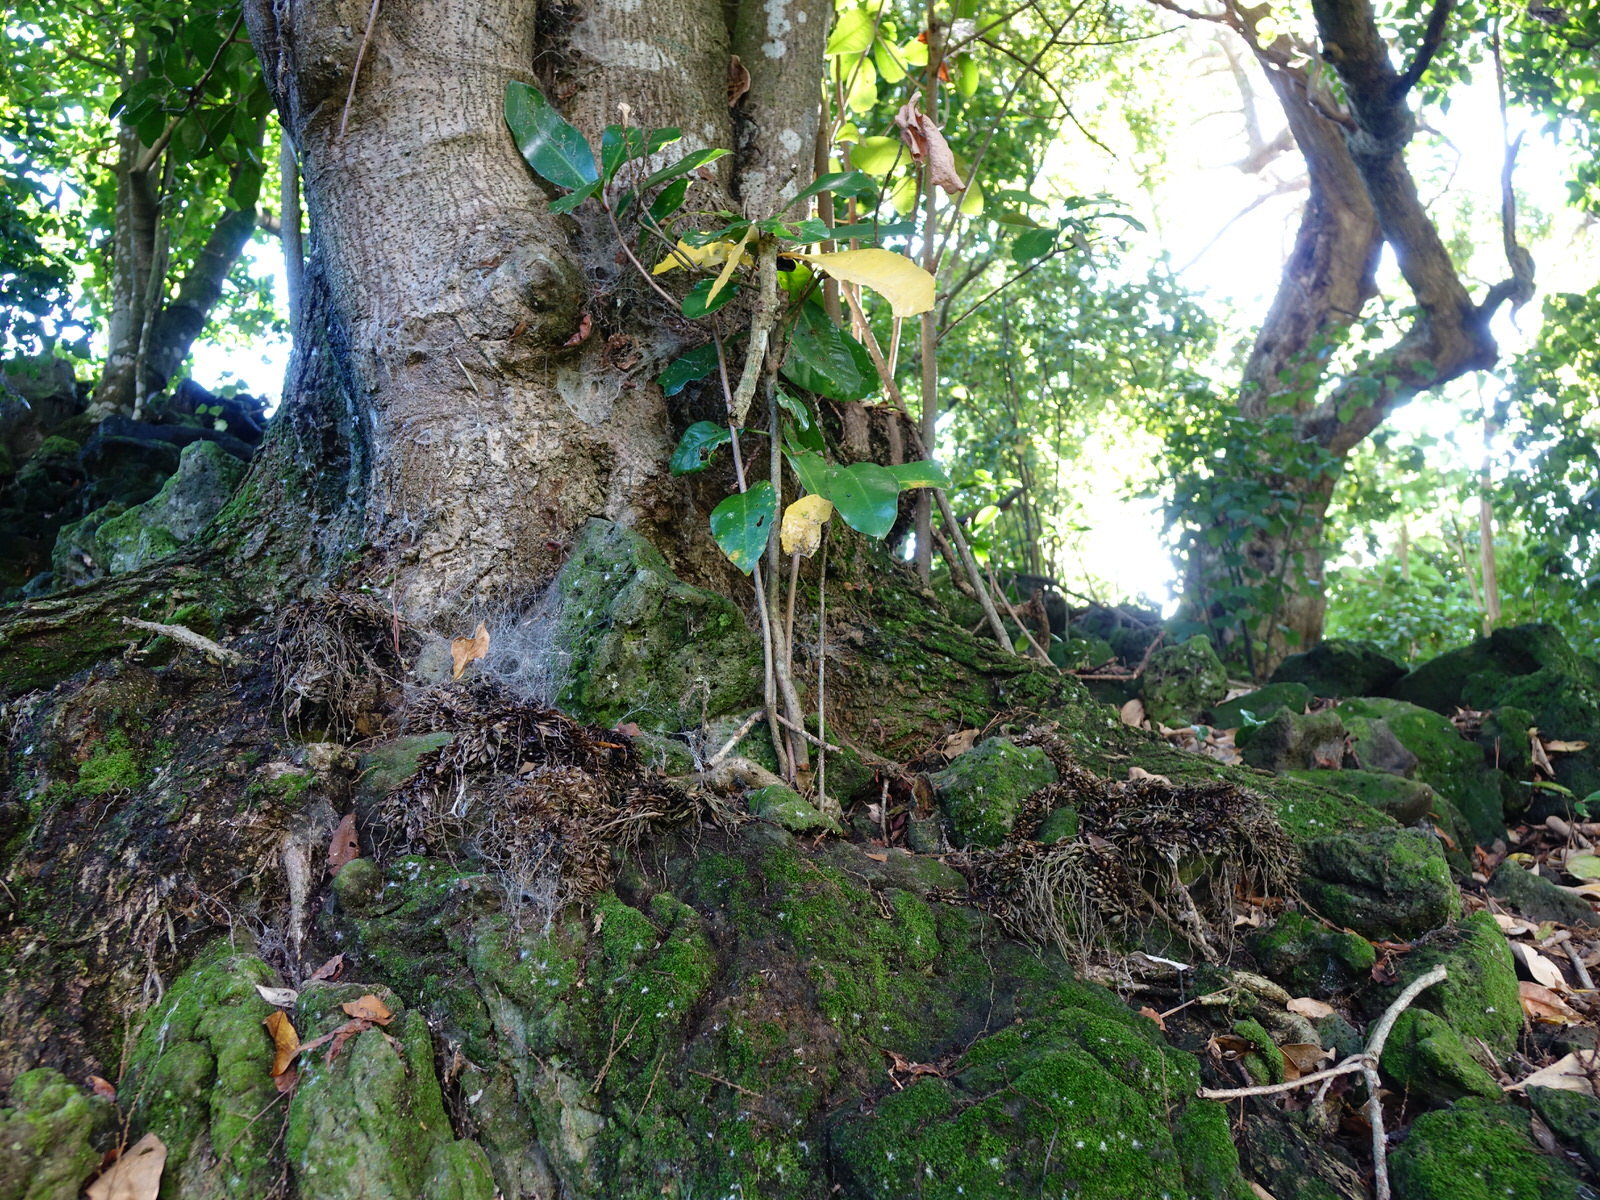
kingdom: Plantae
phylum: Tracheophyta
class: Liliopsida
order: Asparagales
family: Asparagaceae
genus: Asparagus
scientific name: Asparagus asparagoides
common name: African asparagus fern
